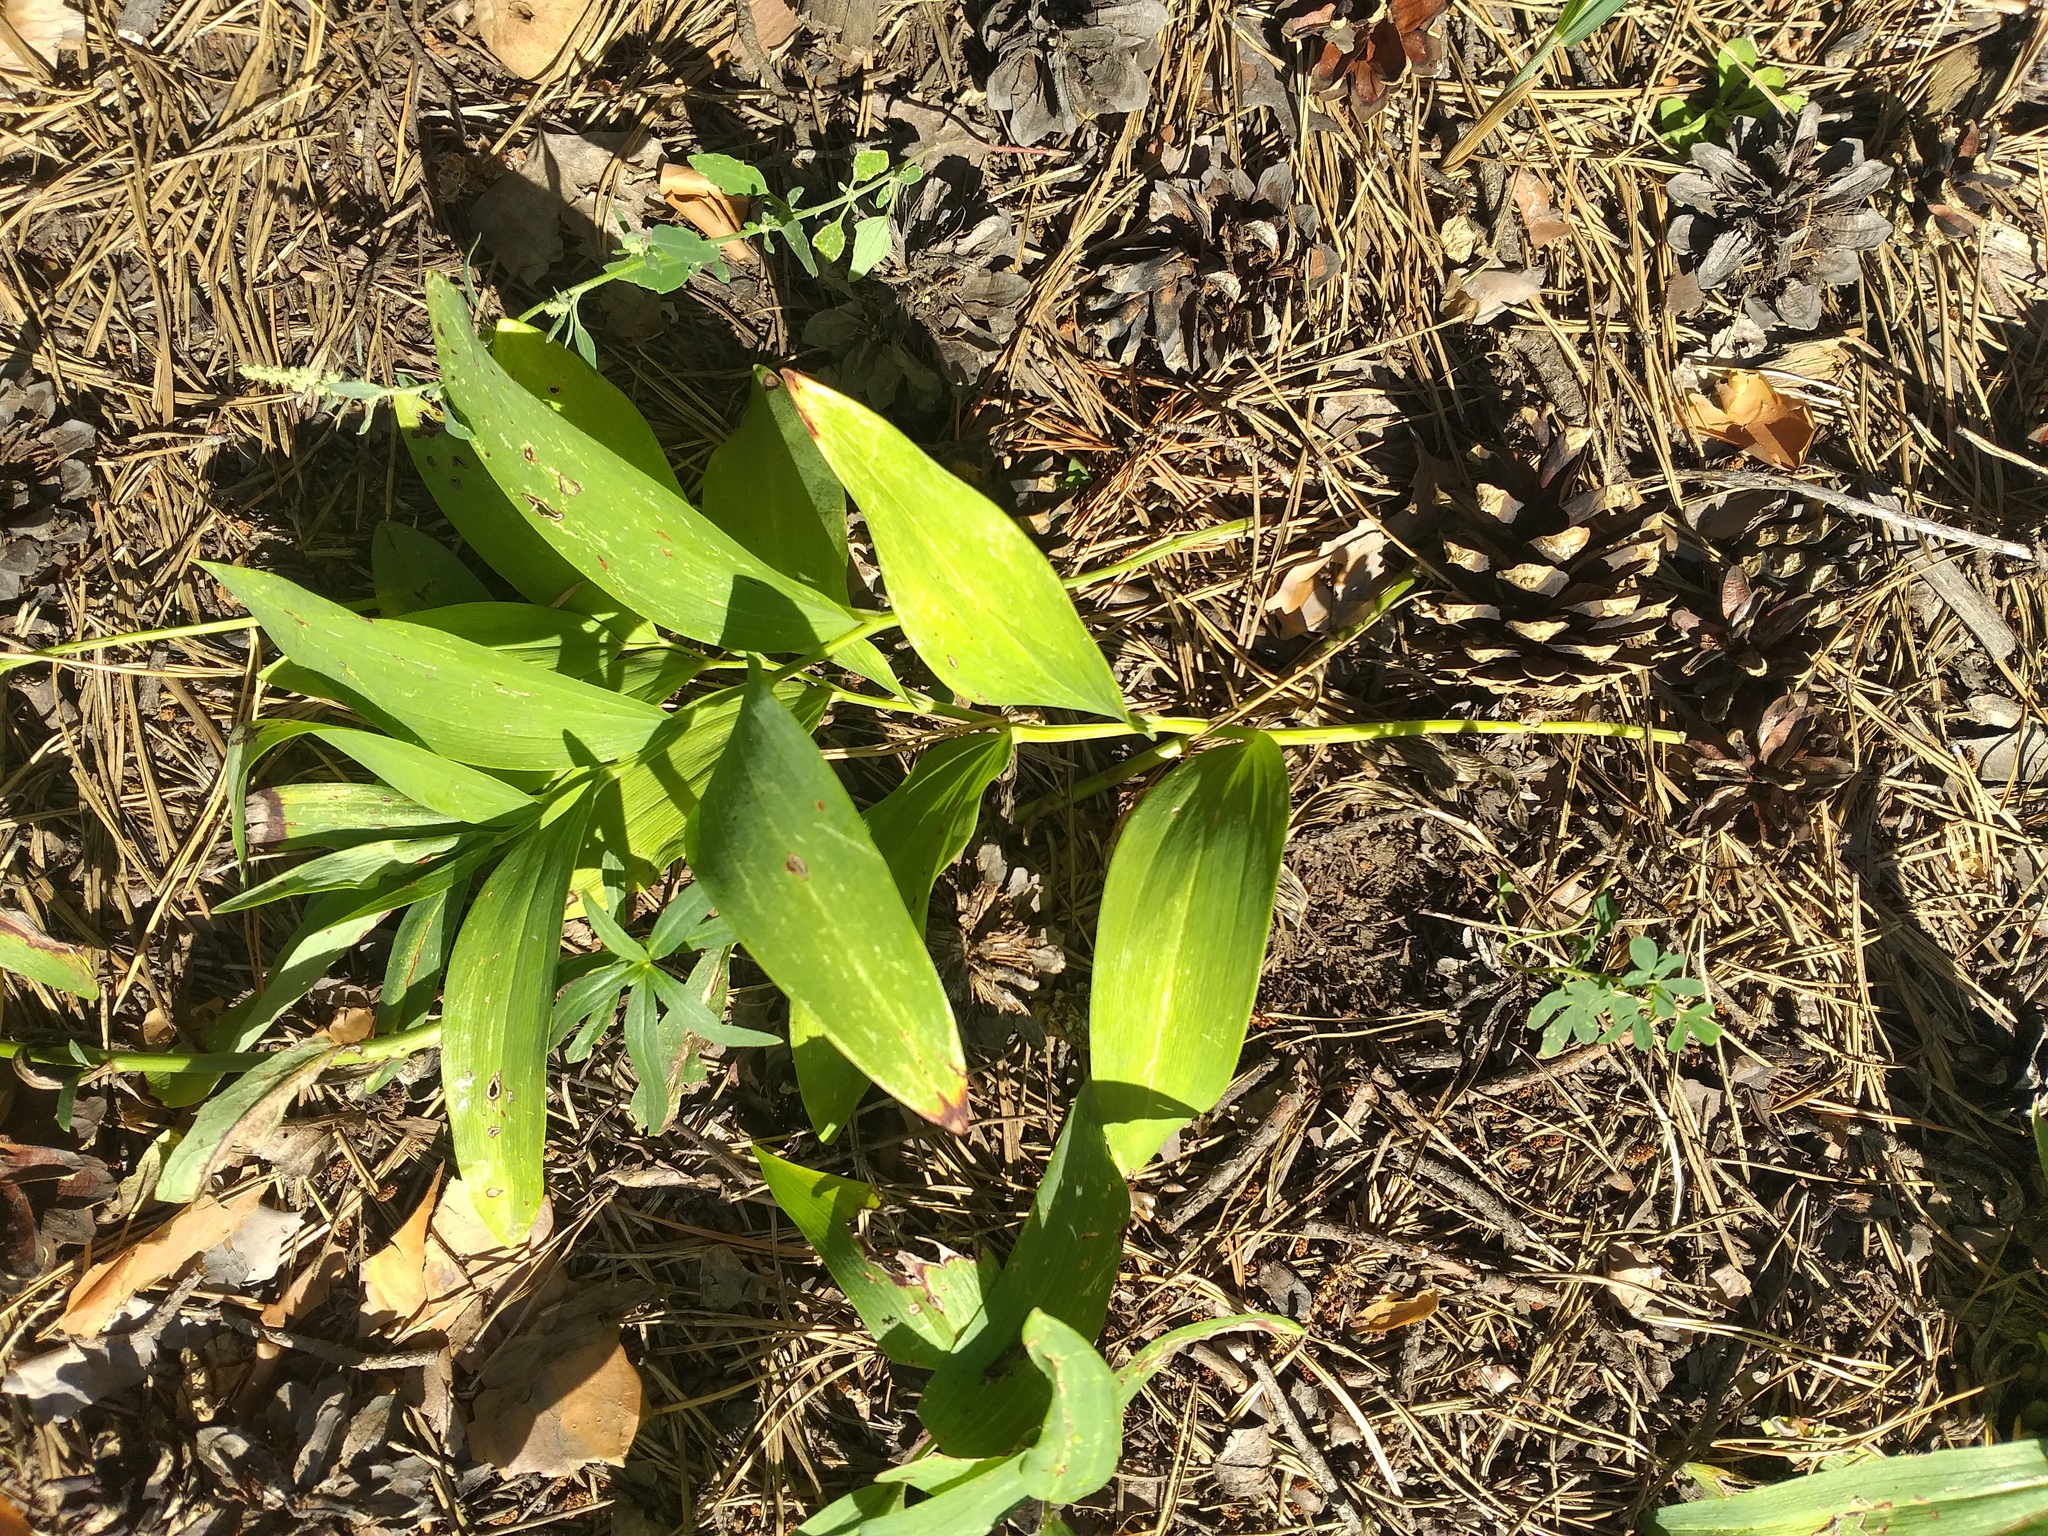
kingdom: Plantae
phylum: Tracheophyta
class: Liliopsida
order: Asparagales
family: Asparagaceae
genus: Polygonatum
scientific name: Polygonatum odoratum
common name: Angular solomon's-seal
